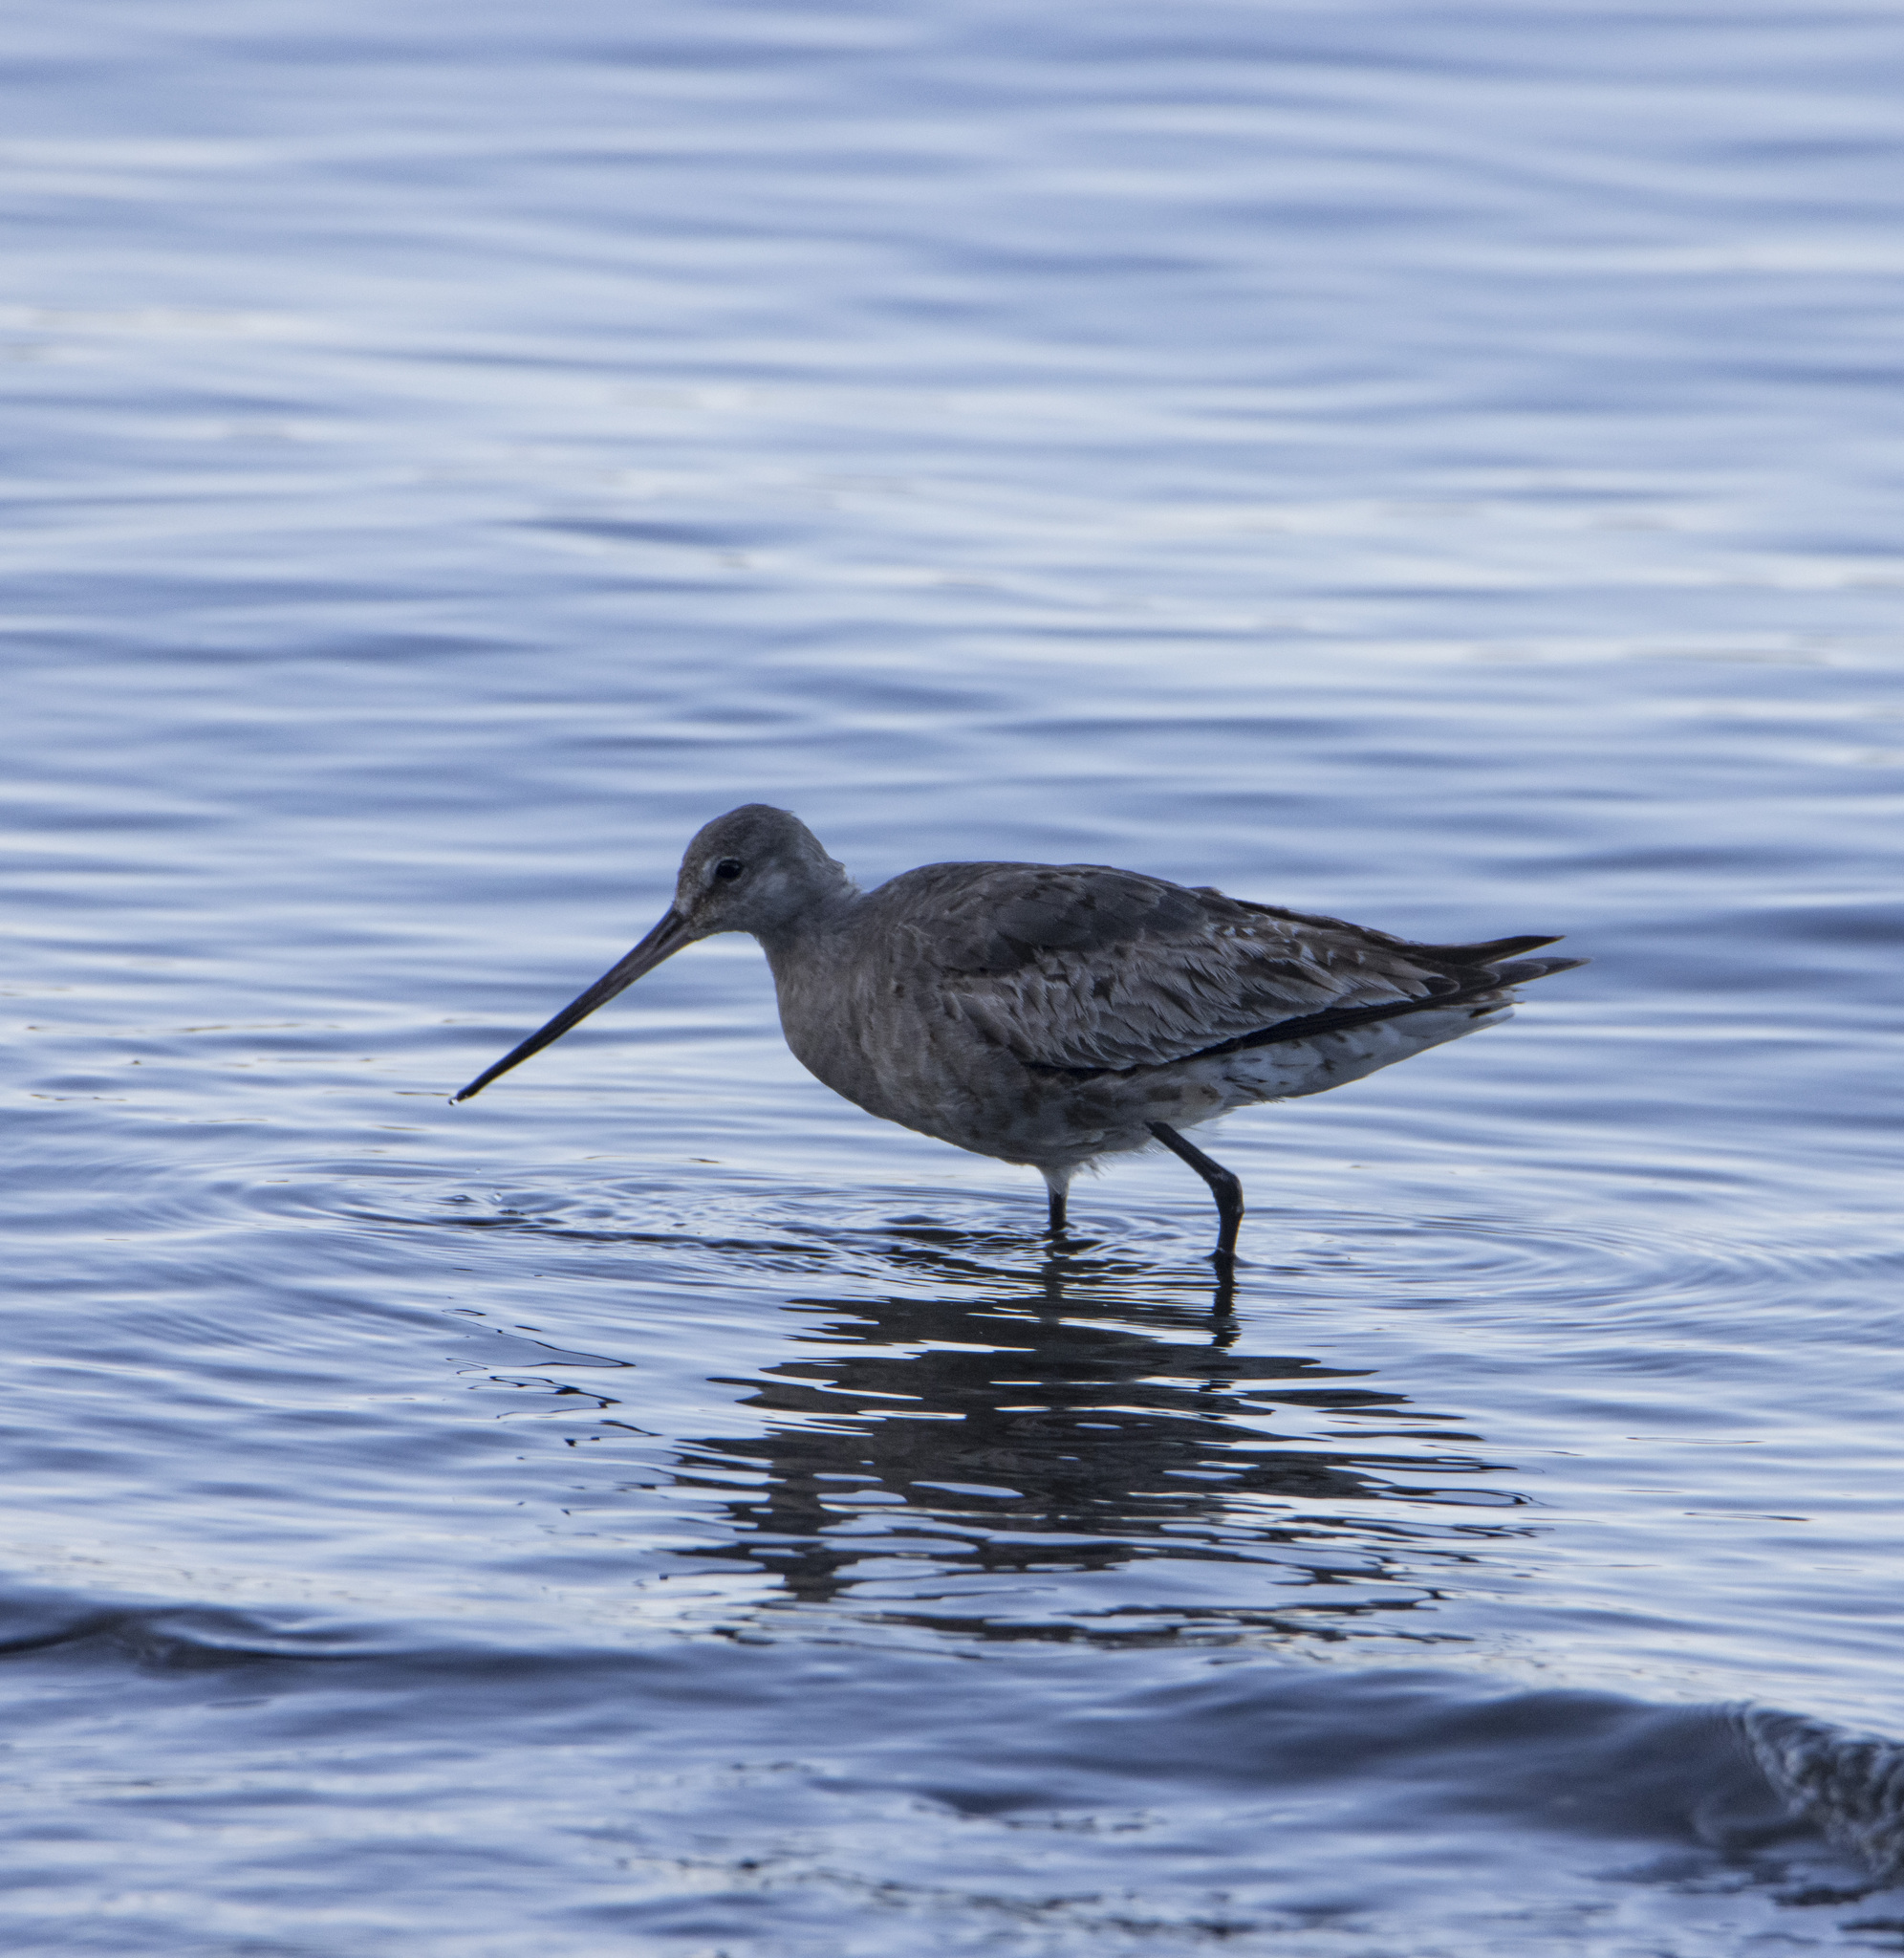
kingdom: Animalia
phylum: Chordata
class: Aves
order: Charadriiformes
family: Scolopacidae
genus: Limosa
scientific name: Limosa haemastica
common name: Hudsonian godwit
